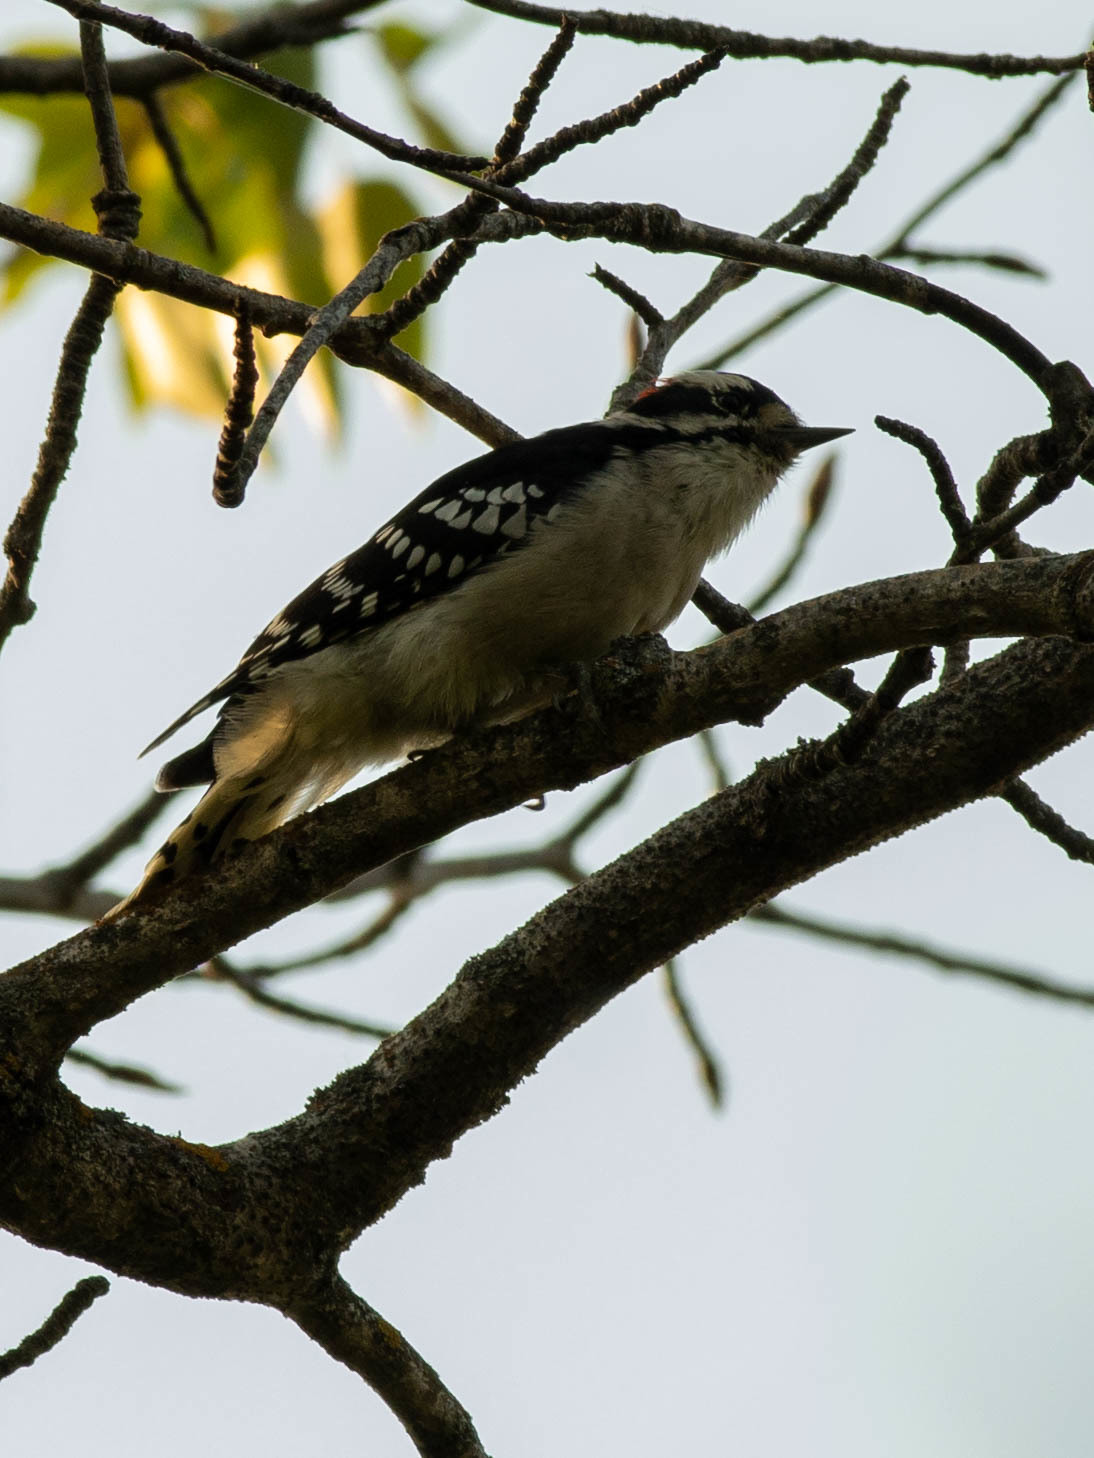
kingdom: Animalia
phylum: Chordata
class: Aves
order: Piciformes
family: Picidae
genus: Dryobates
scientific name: Dryobates pubescens
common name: Downy woodpecker
